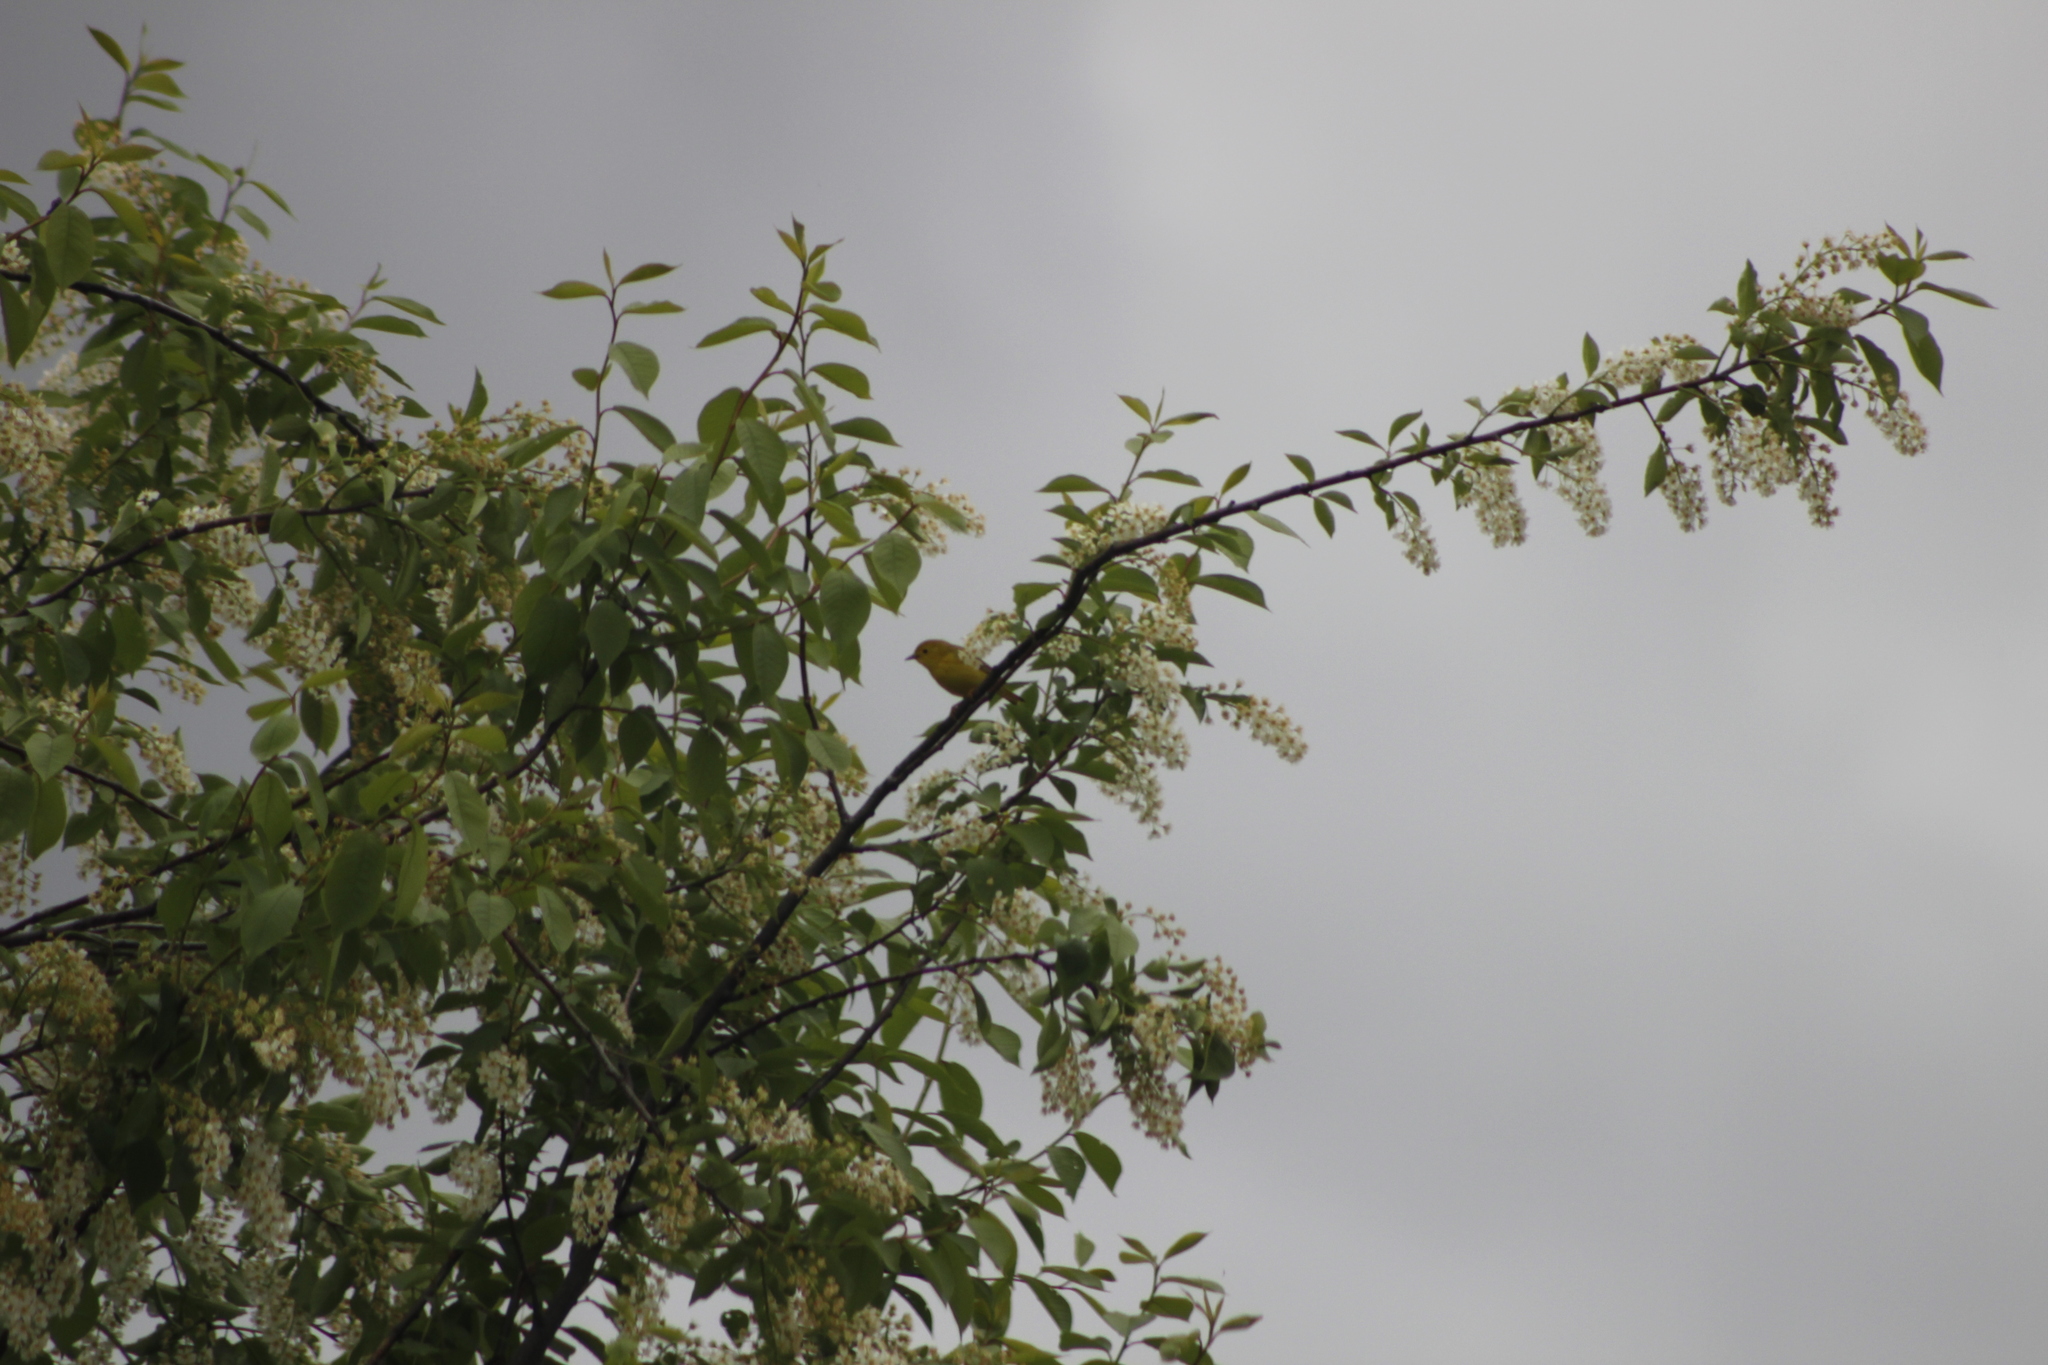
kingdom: Animalia
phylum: Chordata
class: Aves
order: Passeriformes
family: Parulidae
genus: Setophaga
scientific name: Setophaga petechia
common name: Yellow warbler
